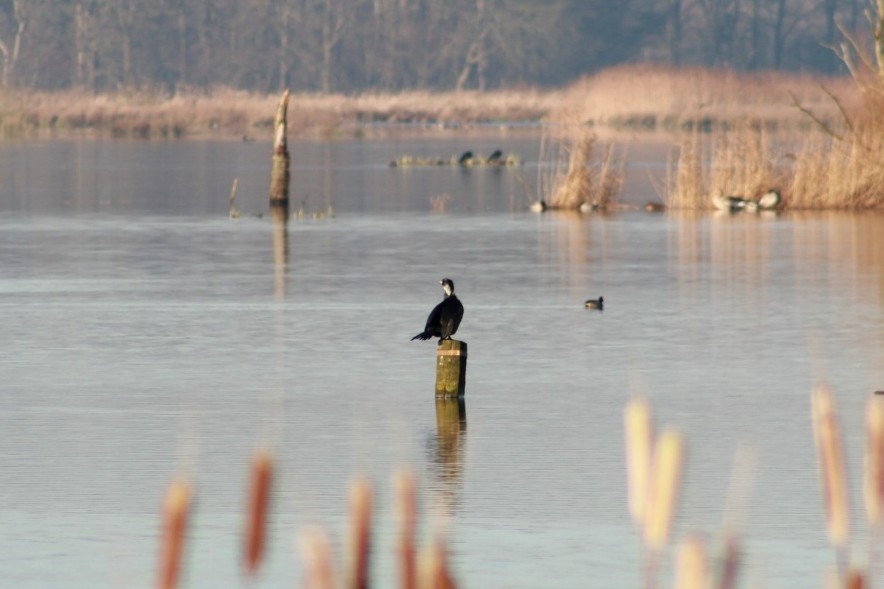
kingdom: Animalia
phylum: Chordata
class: Aves
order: Suliformes
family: Phalacrocoracidae
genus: Phalacrocorax
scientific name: Phalacrocorax carbo
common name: Great cormorant
